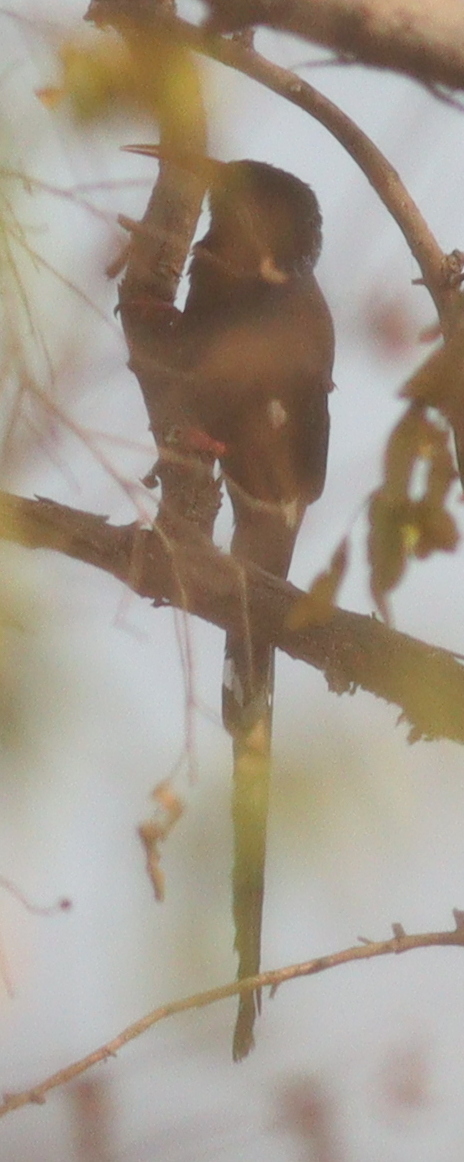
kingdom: Animalia
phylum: Chordata
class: Aves
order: Bucerotiformes
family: Phoeniculidae
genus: Phoeniculus
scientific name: Phoeniculus purpureus
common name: Green woodhoopoe
